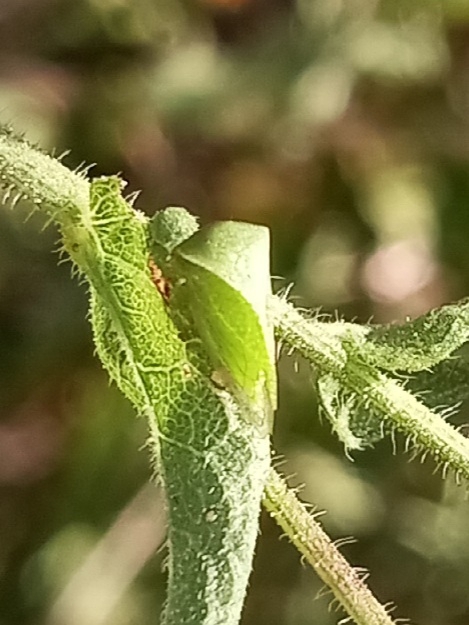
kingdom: Animalia
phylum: Arthropoda
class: Insecta
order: Hemiptera
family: Membracidae
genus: Spissistilus
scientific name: Spissistilus festina
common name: Membracid bug
